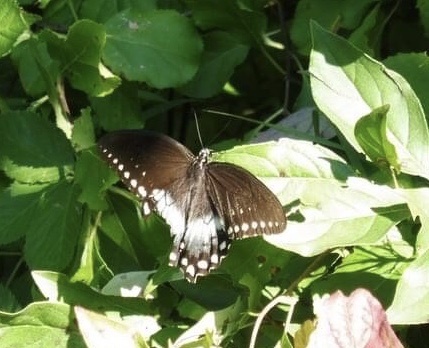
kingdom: Animalia
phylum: Arthropoda
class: Insecta
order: Lepidoptera
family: Papilionidae
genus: Papilio
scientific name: Papilio troilus
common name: Spicebush swallowtail
